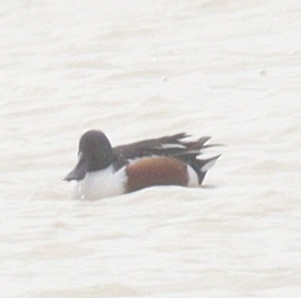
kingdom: Animalia
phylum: Chordata
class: Aves
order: Anseriformes
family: Anatidae
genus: Spatula
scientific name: Spatula clypeata
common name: Northern shoveler
